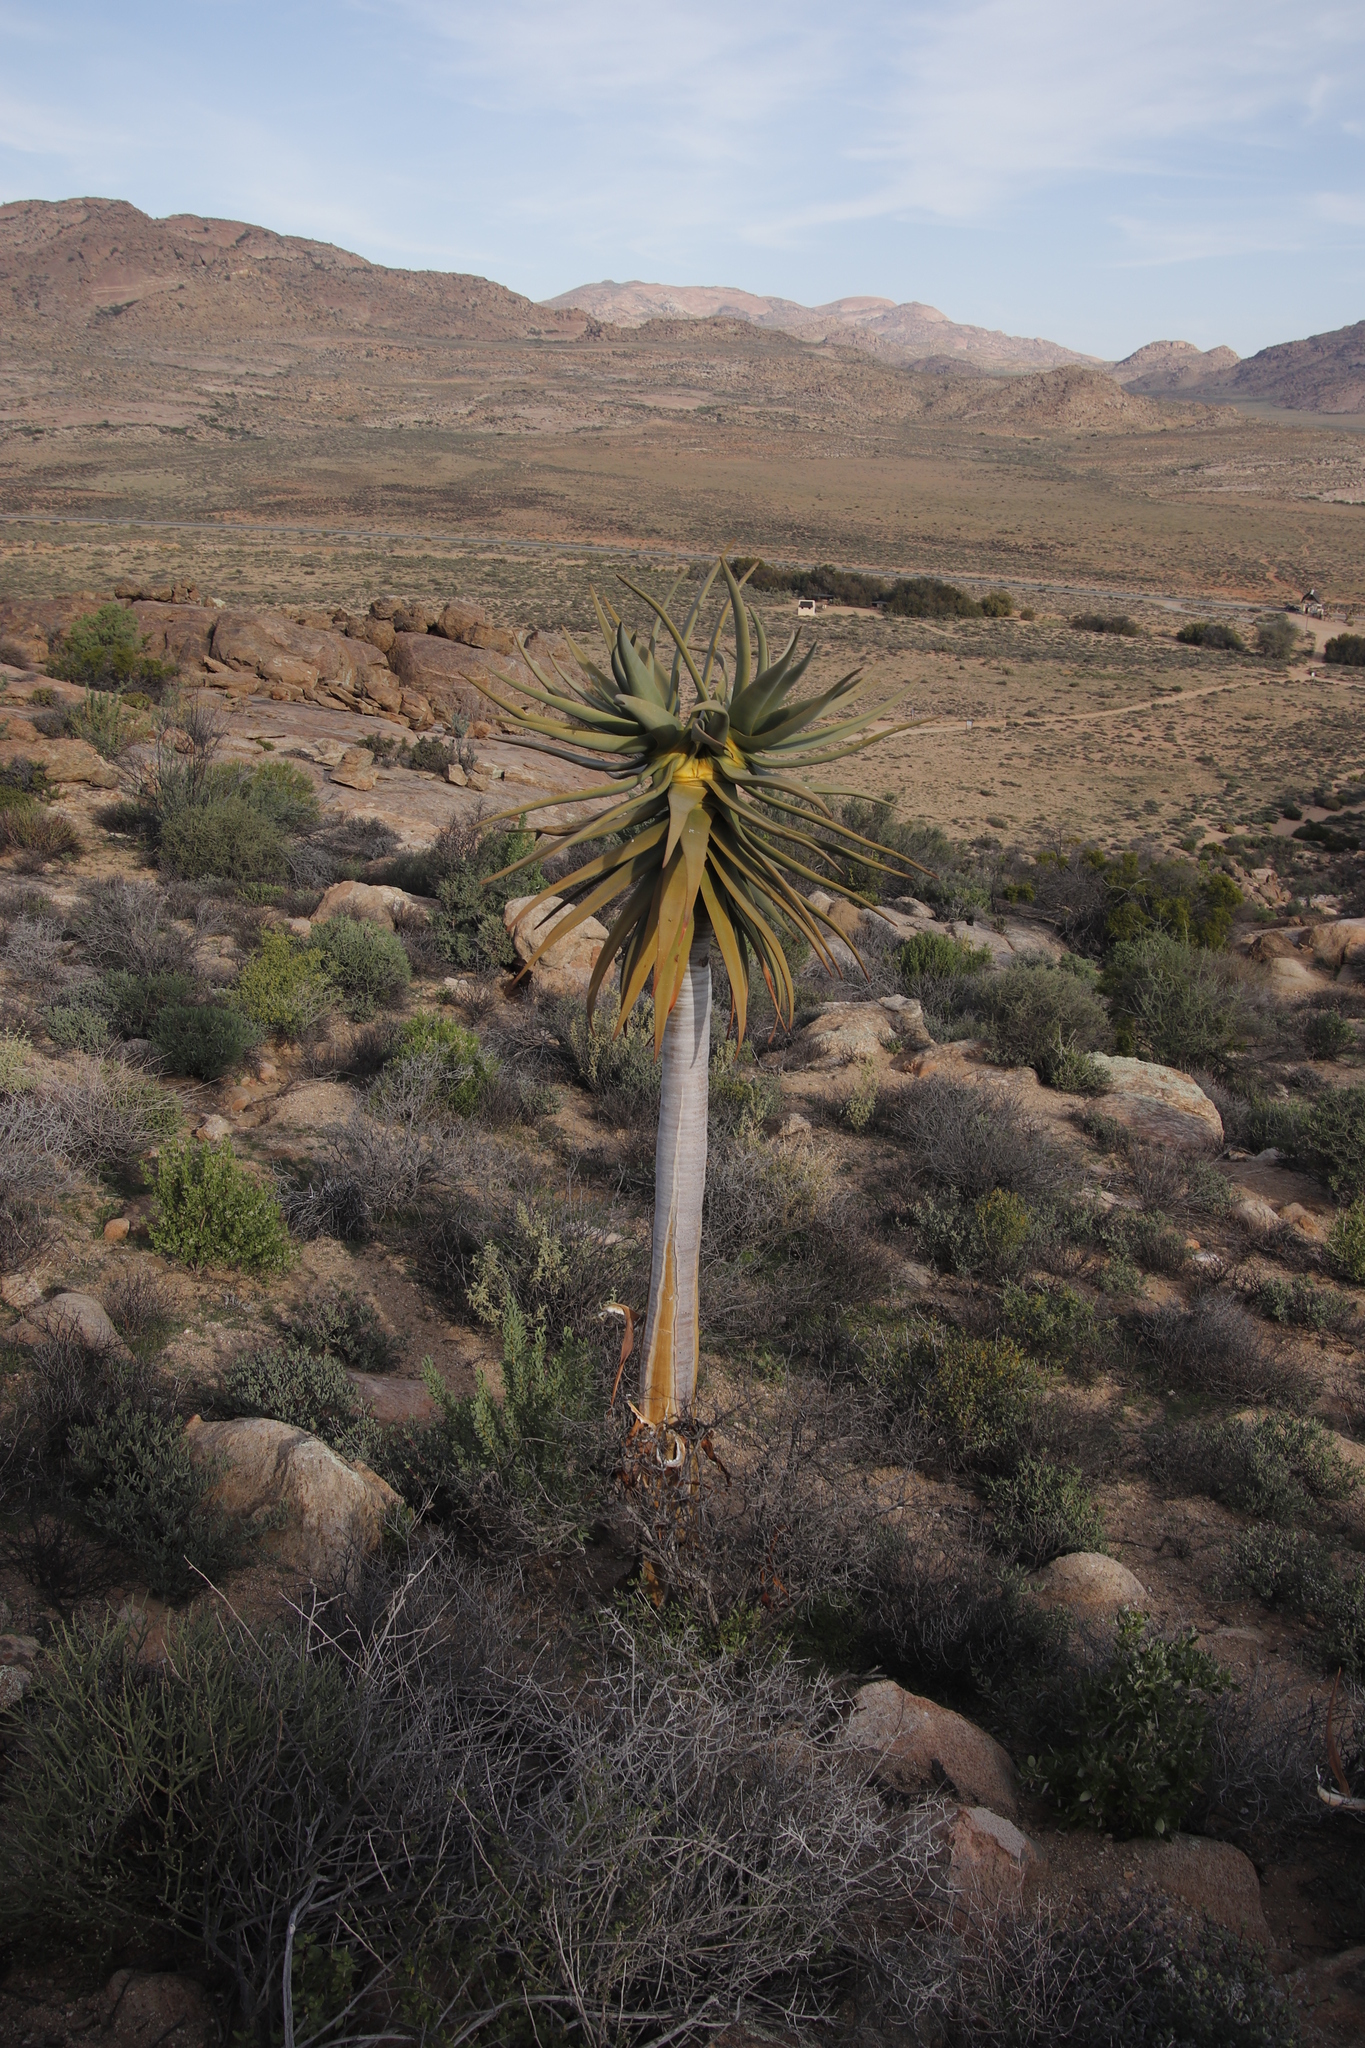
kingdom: Plantae
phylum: Tracheophyta
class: Liliopsida
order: Asparagales
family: Asphodelaceae
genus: Aloidendron
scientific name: Aloidendron dichotomum
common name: Quiver tree
